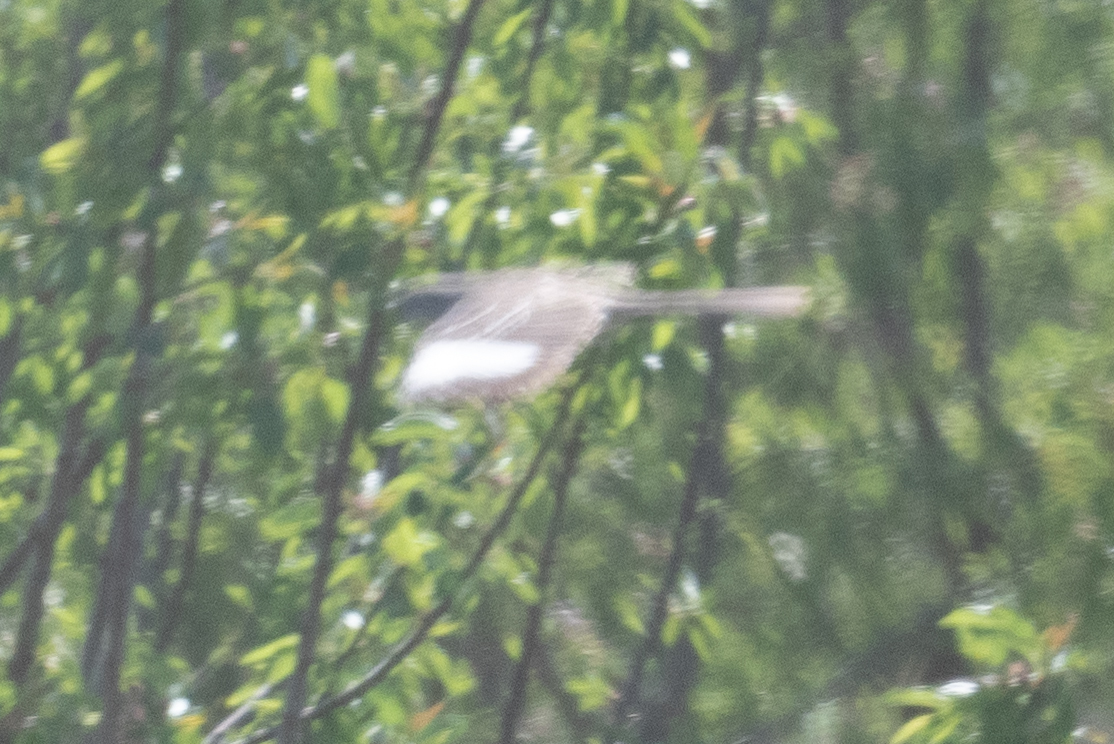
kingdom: Animalia
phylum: Chordata
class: Aves
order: Passeriformes
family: Mimidae
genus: Mimus
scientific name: Mimus polyglottos
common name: Northern mockingbird
